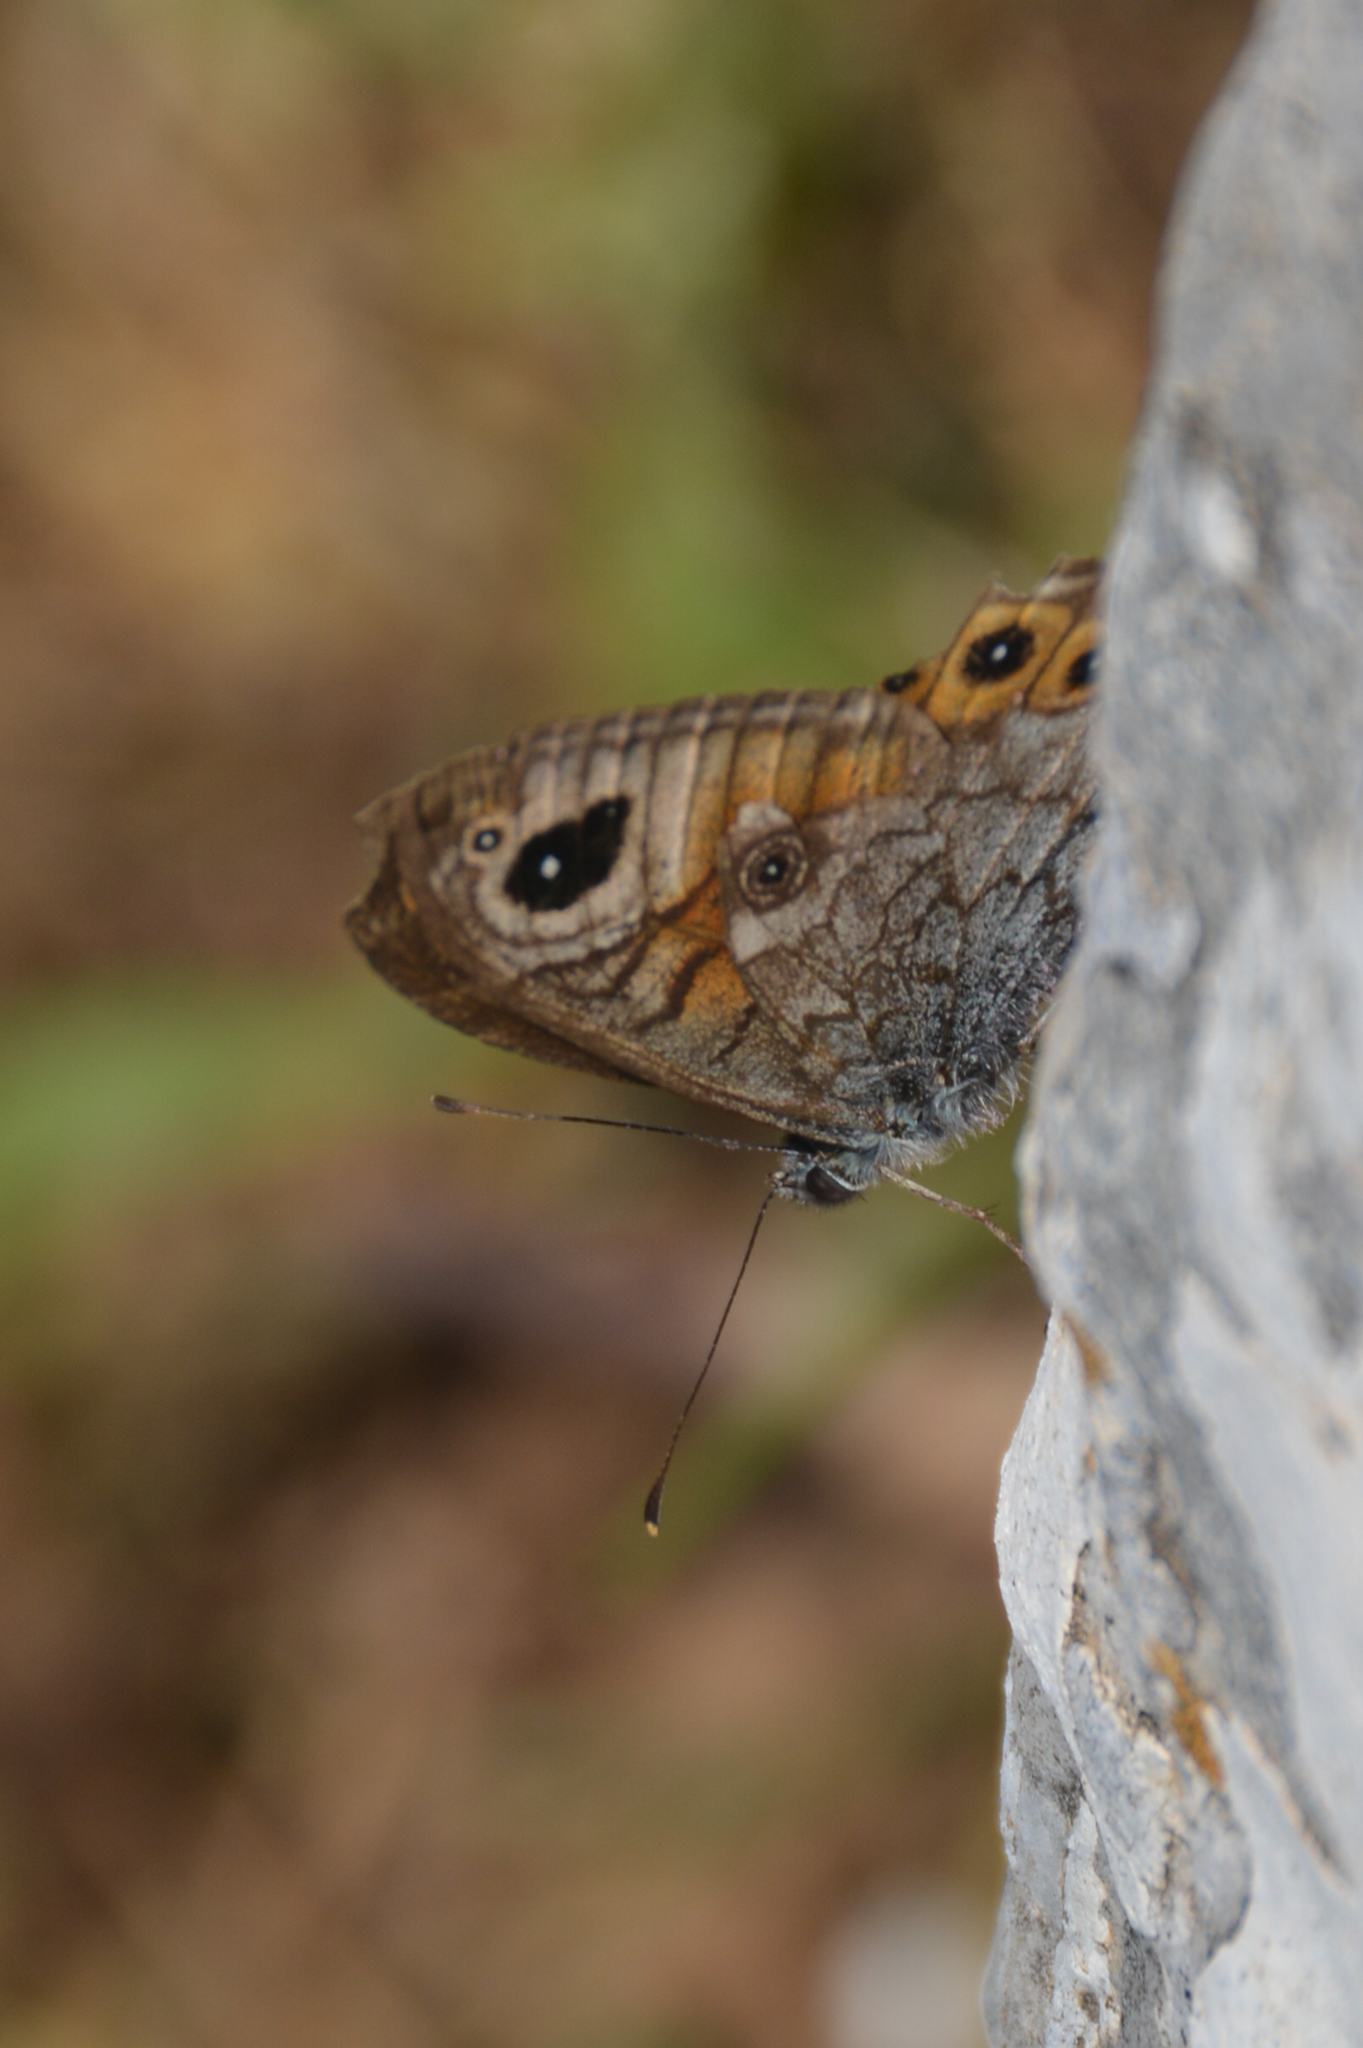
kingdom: Animalia
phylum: Arthropoda
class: Insecta
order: Lepidoptera
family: Nymphalidae
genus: Pararge
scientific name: Pararge Lasiommata maera
